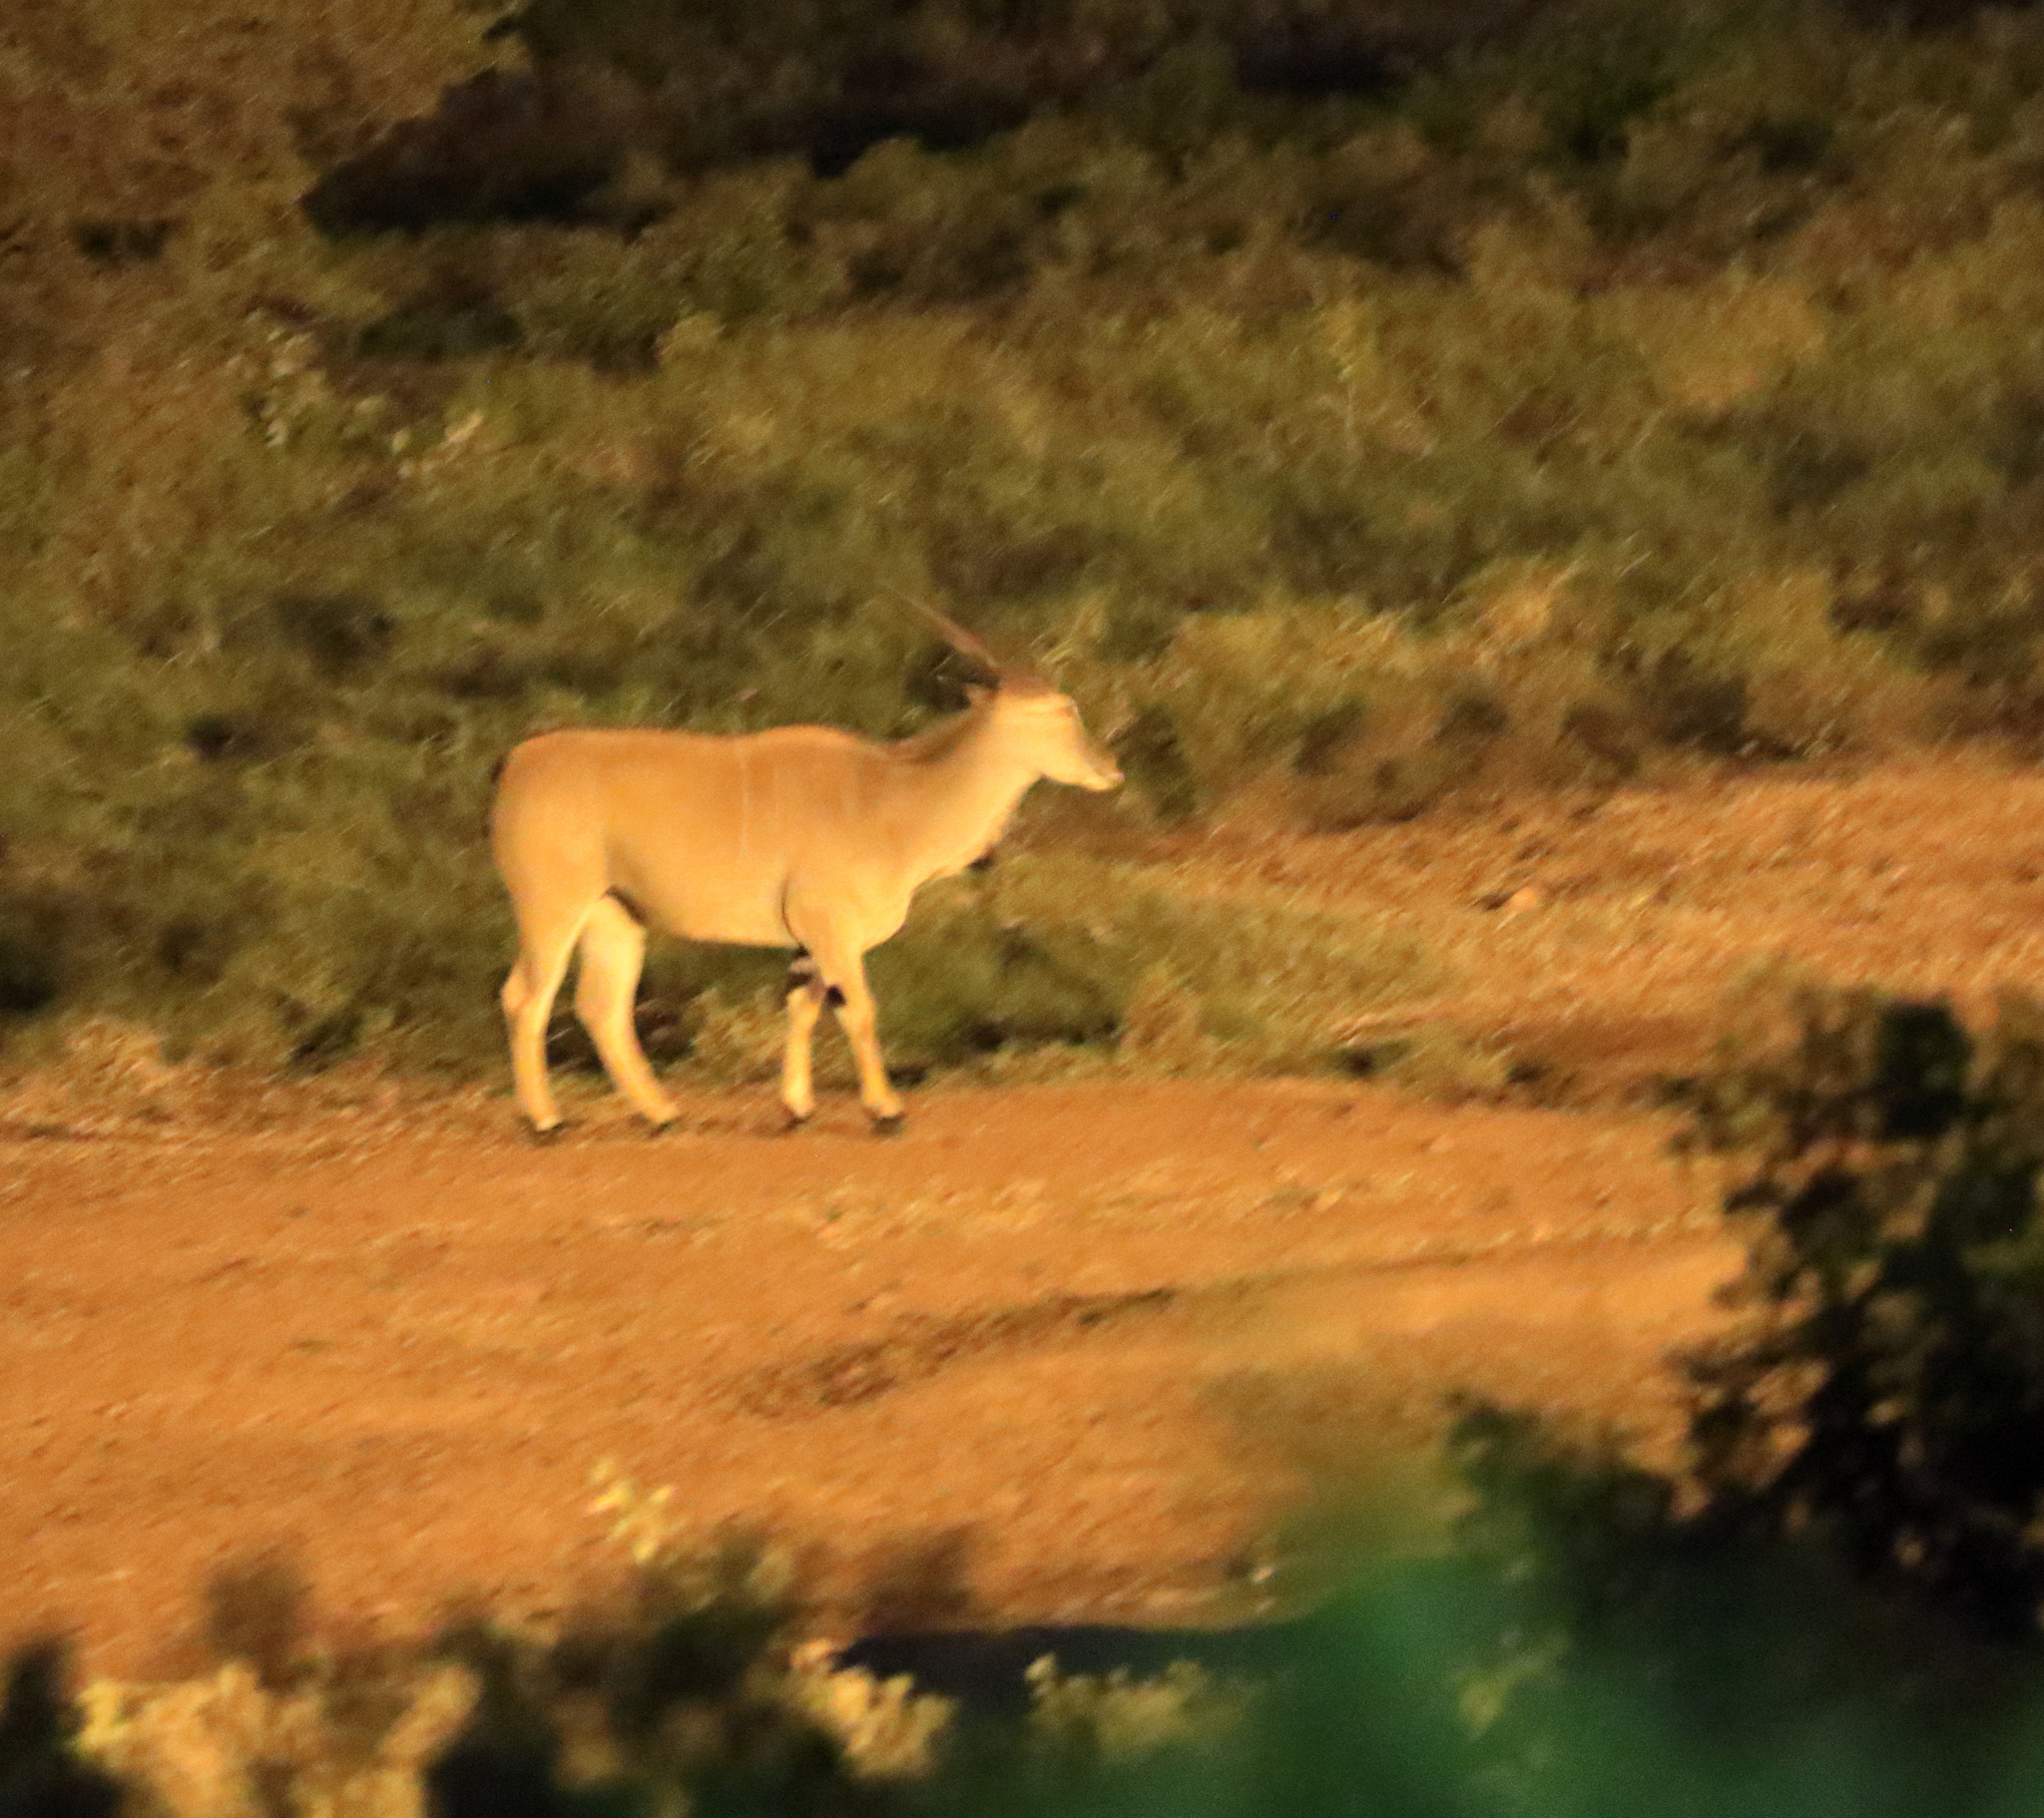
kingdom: Animalia
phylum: Chordata
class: Mammalia
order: Artiodactyla
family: Bovidae
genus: Taurotragus
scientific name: Taurotragus oryx
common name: Common eland
